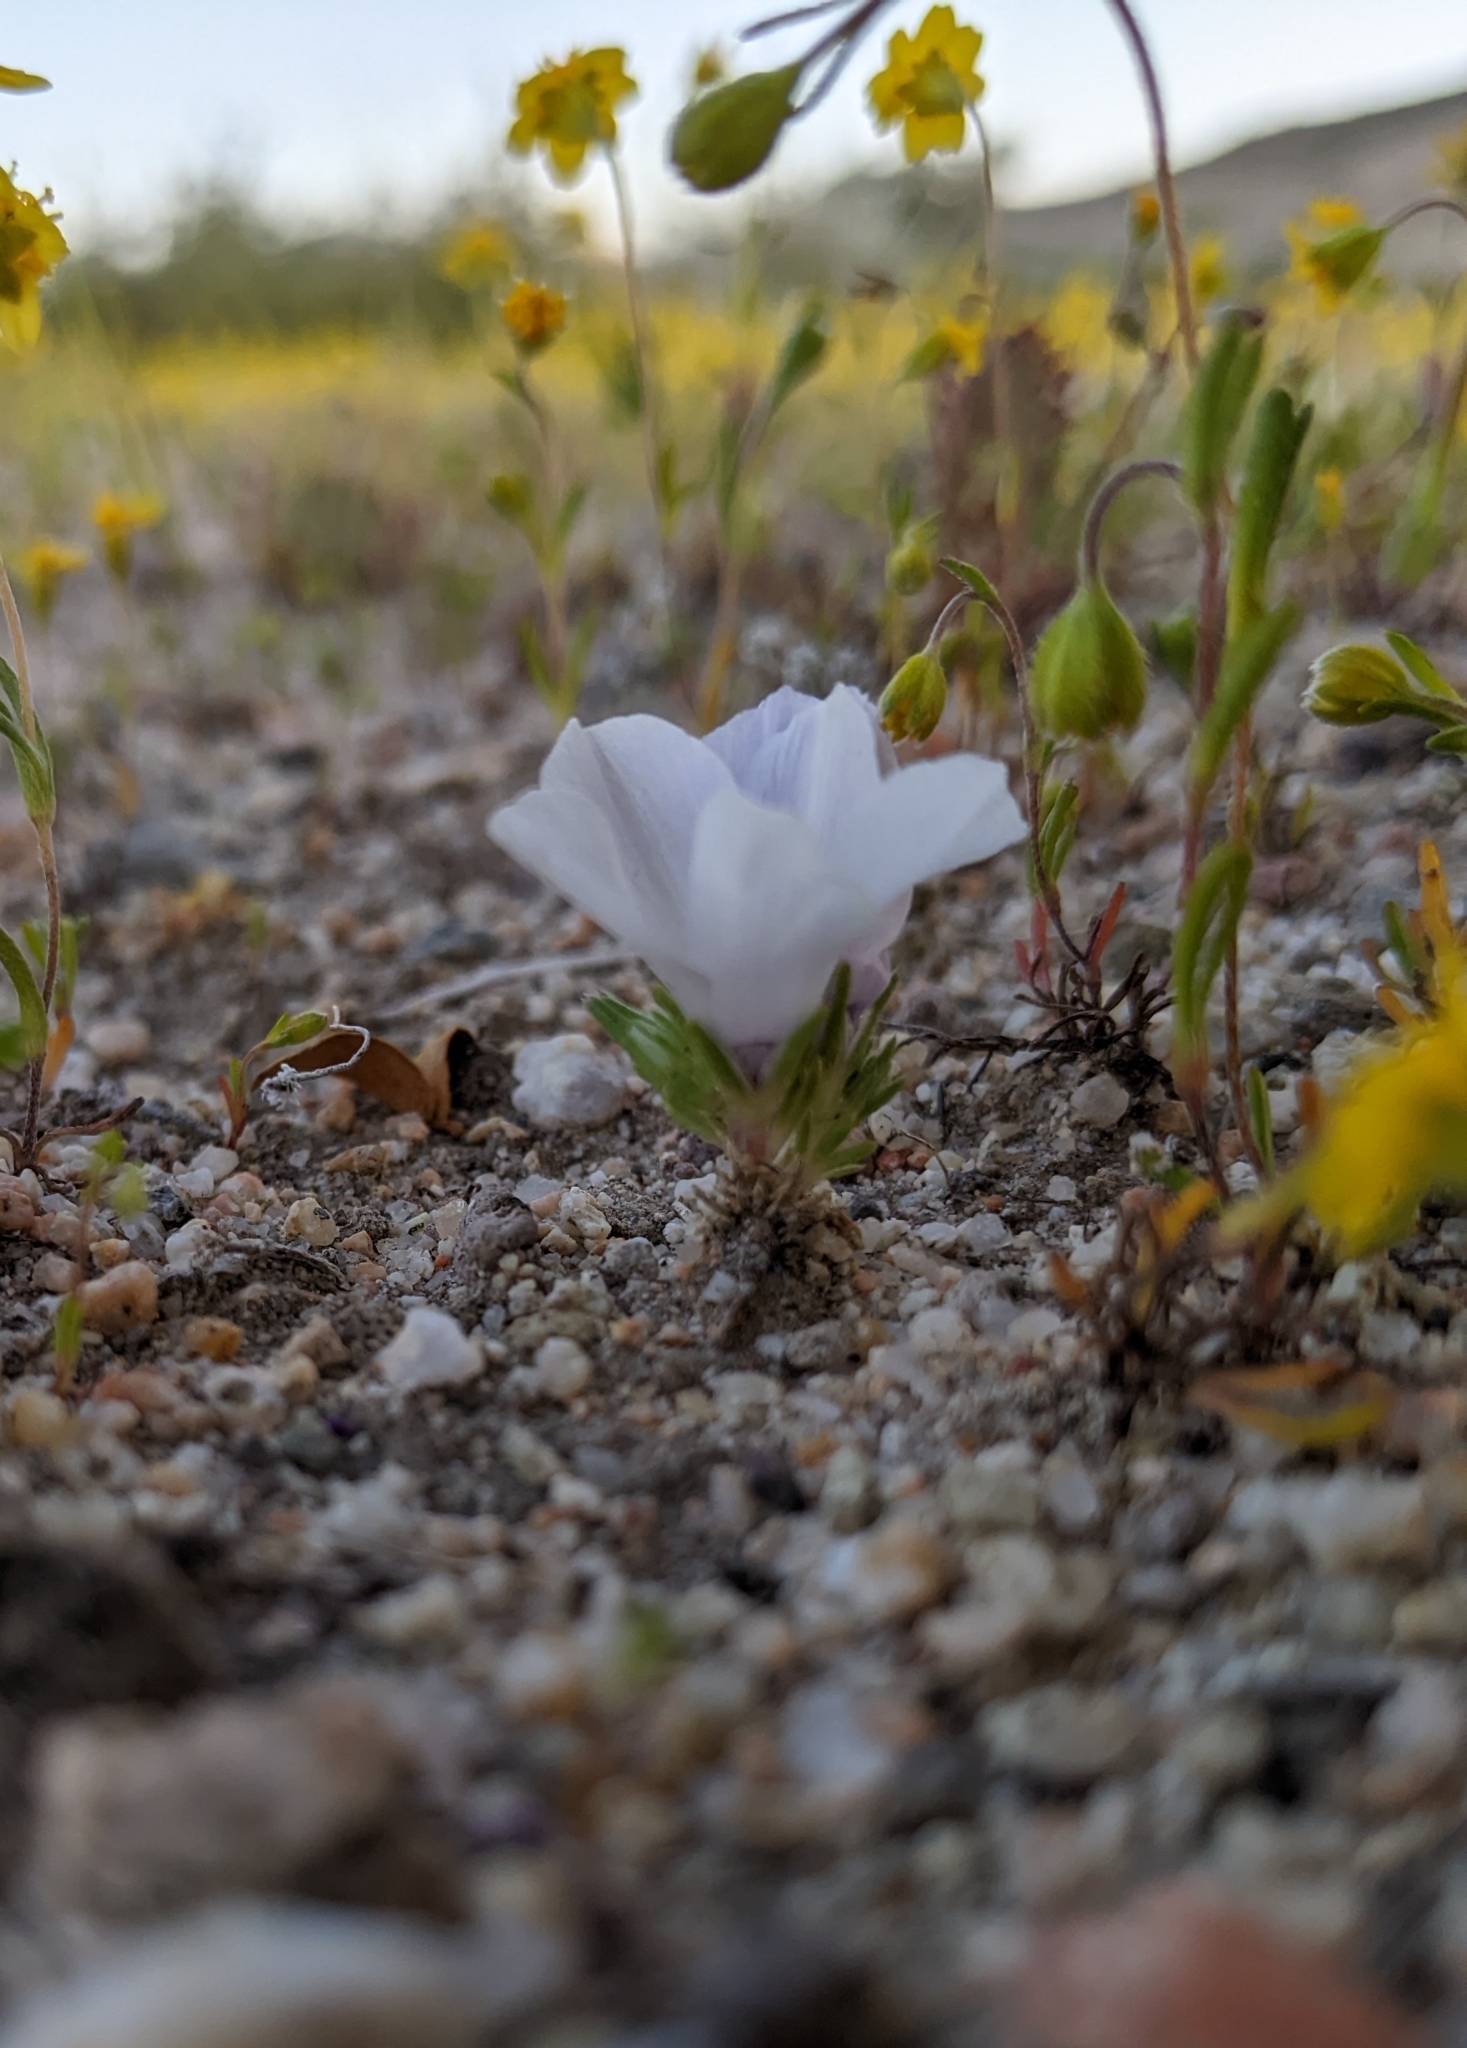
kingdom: Plantae
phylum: Tracheophyta
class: Magnoliopsida
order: Ericales
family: Polemoniaceae
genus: Linanthus
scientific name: Linanthus parryae
